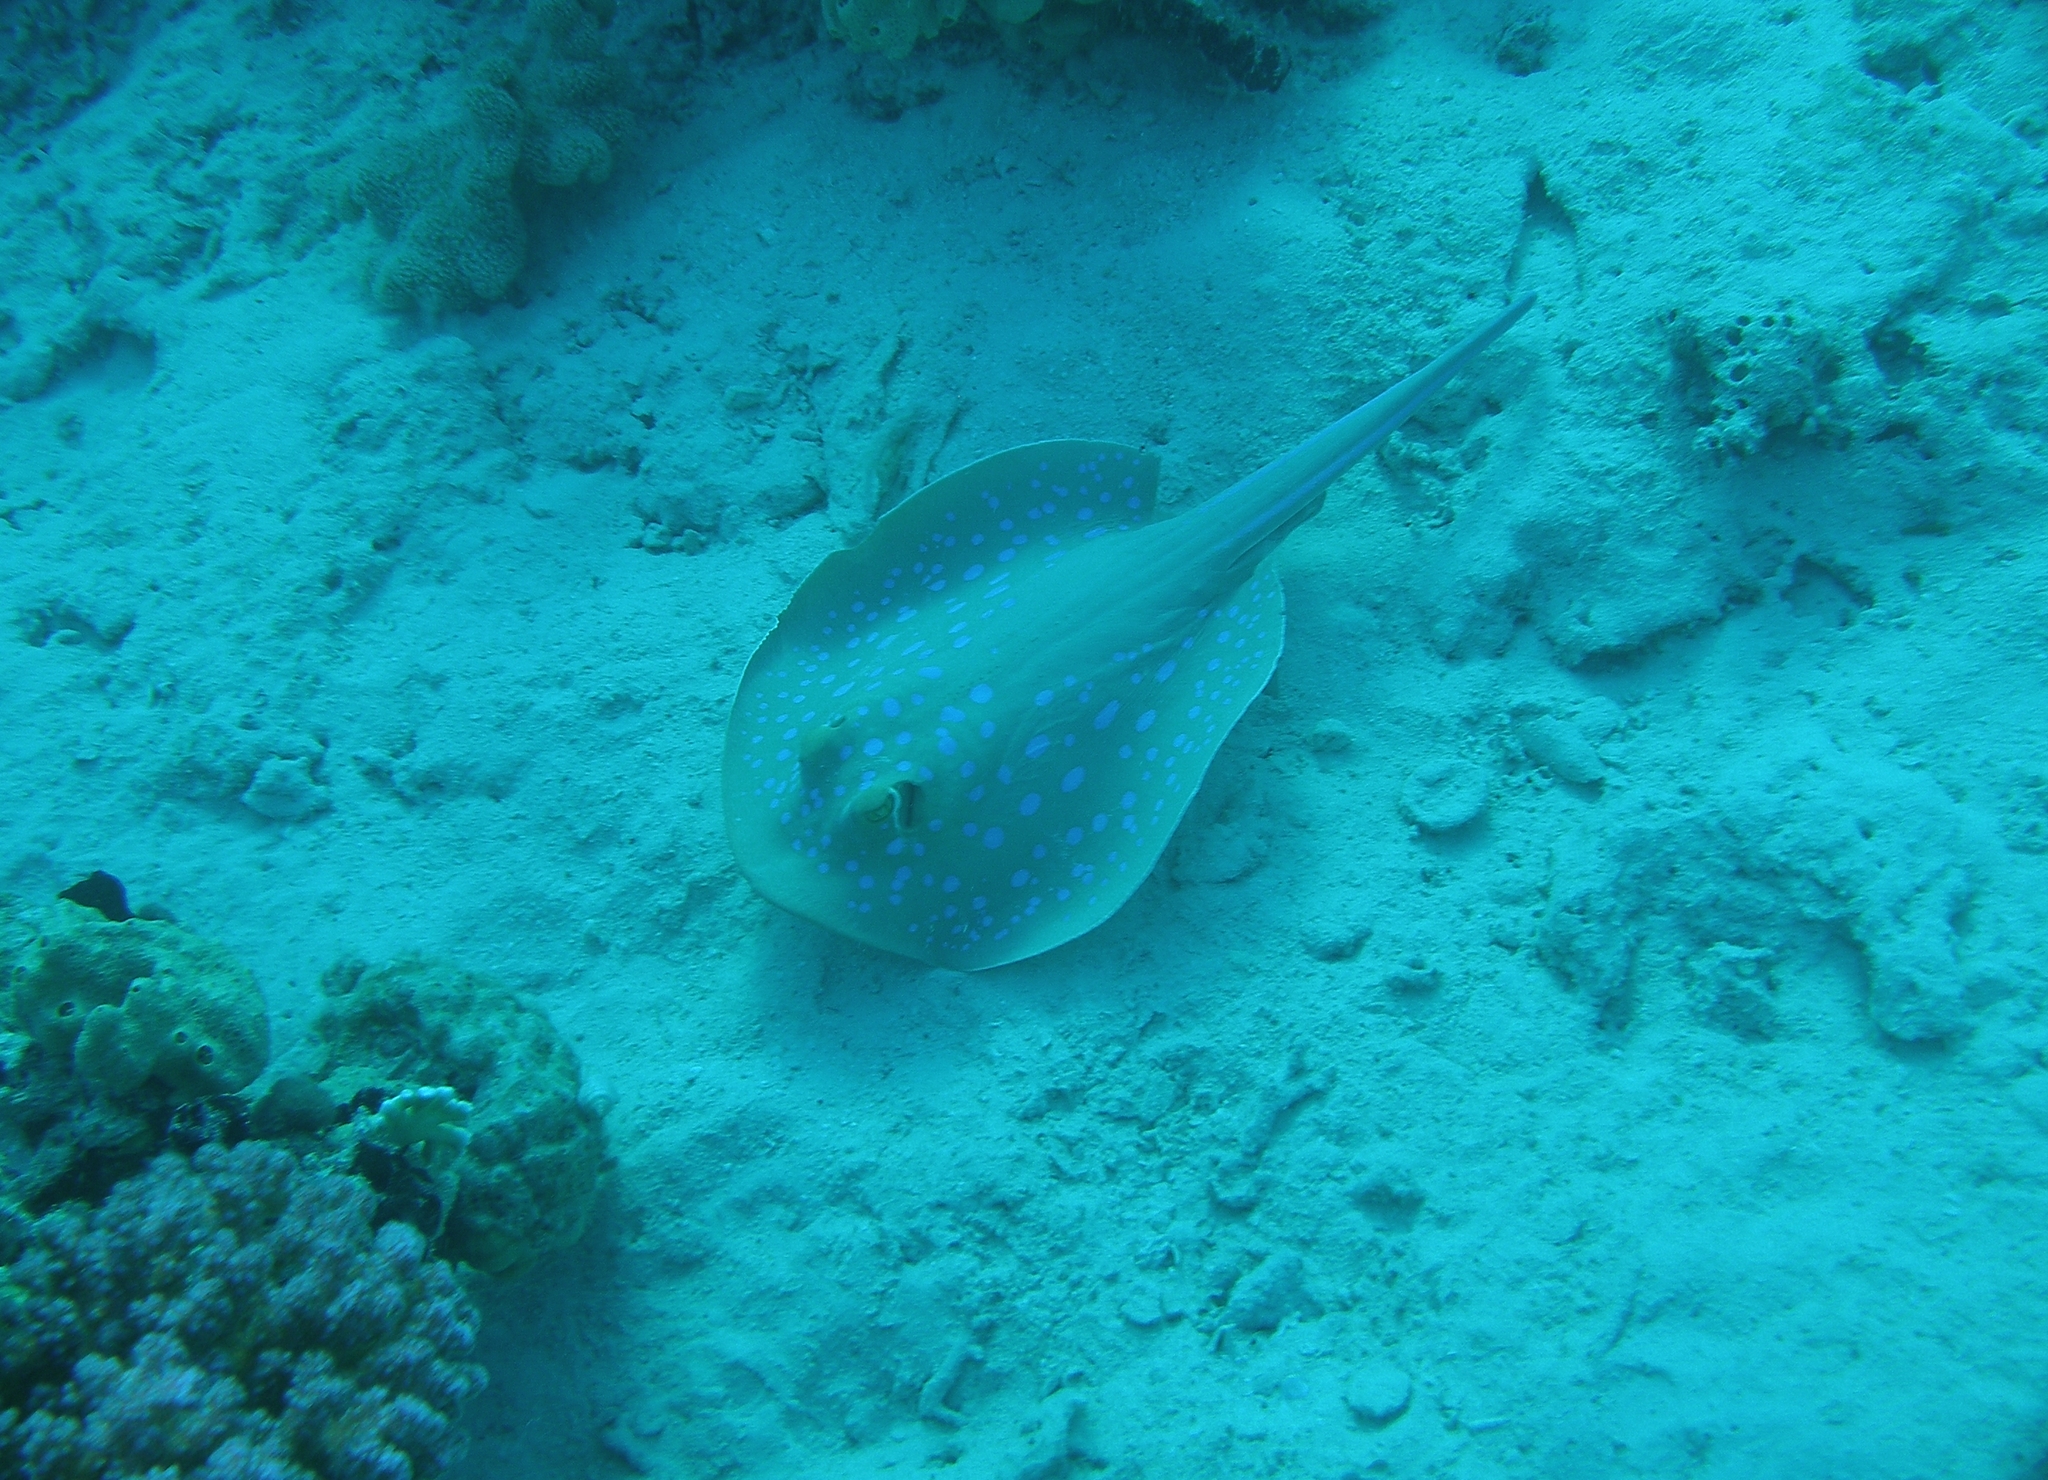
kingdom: Animalia
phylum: Chordata
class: Elasmobranchii
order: Myliobatiformes
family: Dasyatidae
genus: Taeniura
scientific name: Taeniura lymma
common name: Bluespotted ribbontail ray
